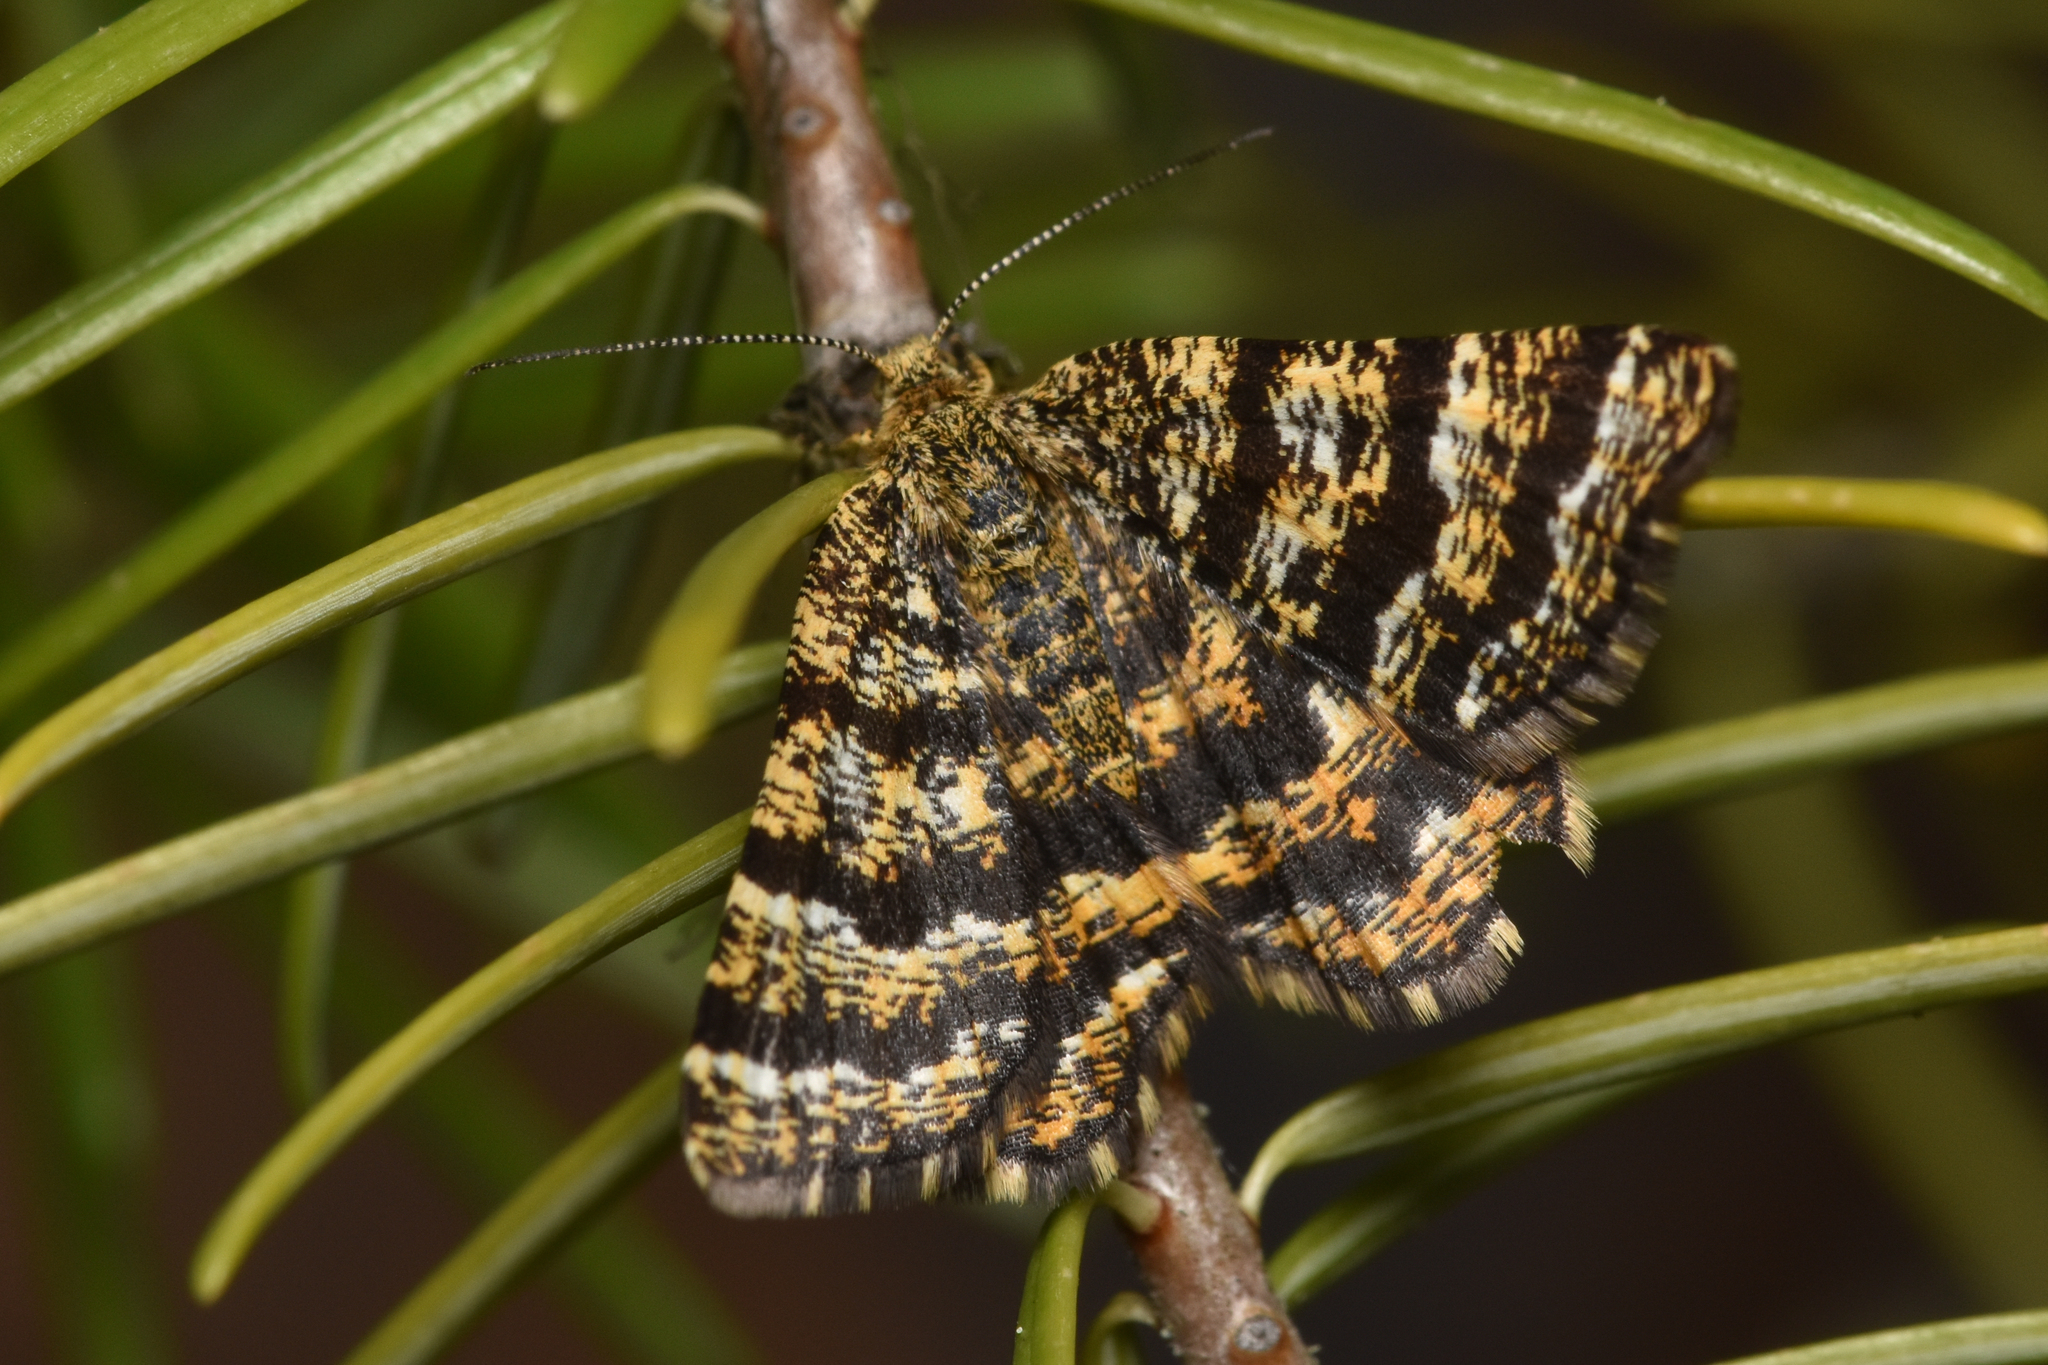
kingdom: Animalia
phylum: Arthropoda
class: Insecta
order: Lepidoptera
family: Geometridae
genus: Macaria
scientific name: Macaria truncataria
